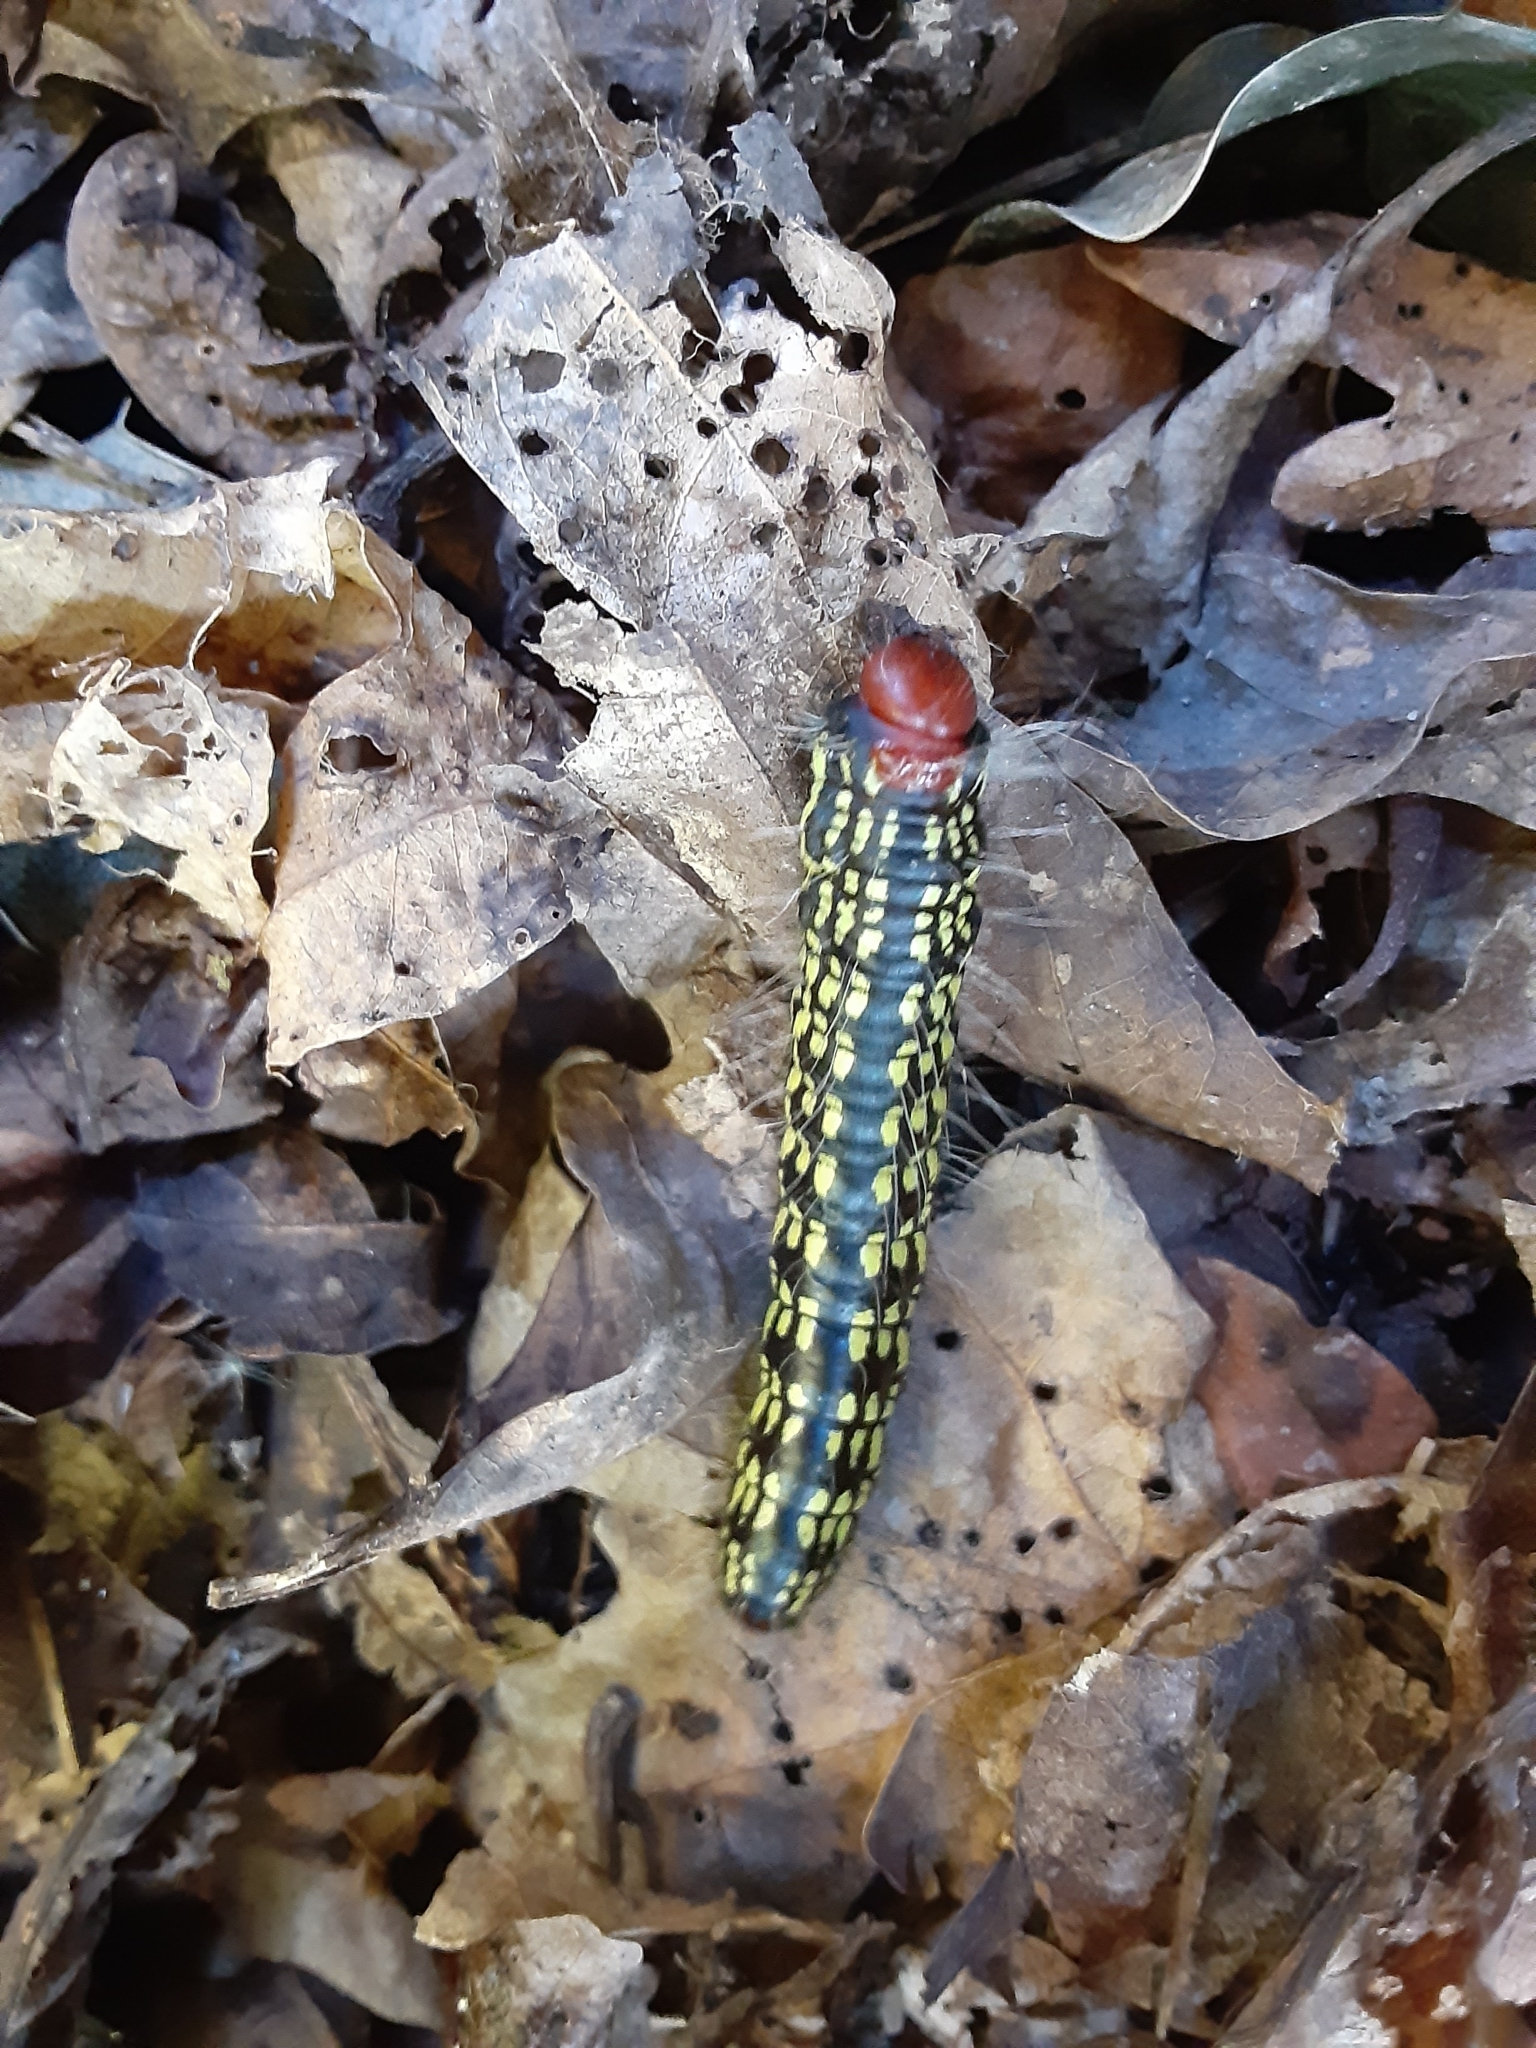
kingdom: Animalia
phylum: Arthropoda
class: Insecta
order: Lepidoptera
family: Notodontidae
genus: Datana
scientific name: Datana major
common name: Azalea caterpillar
